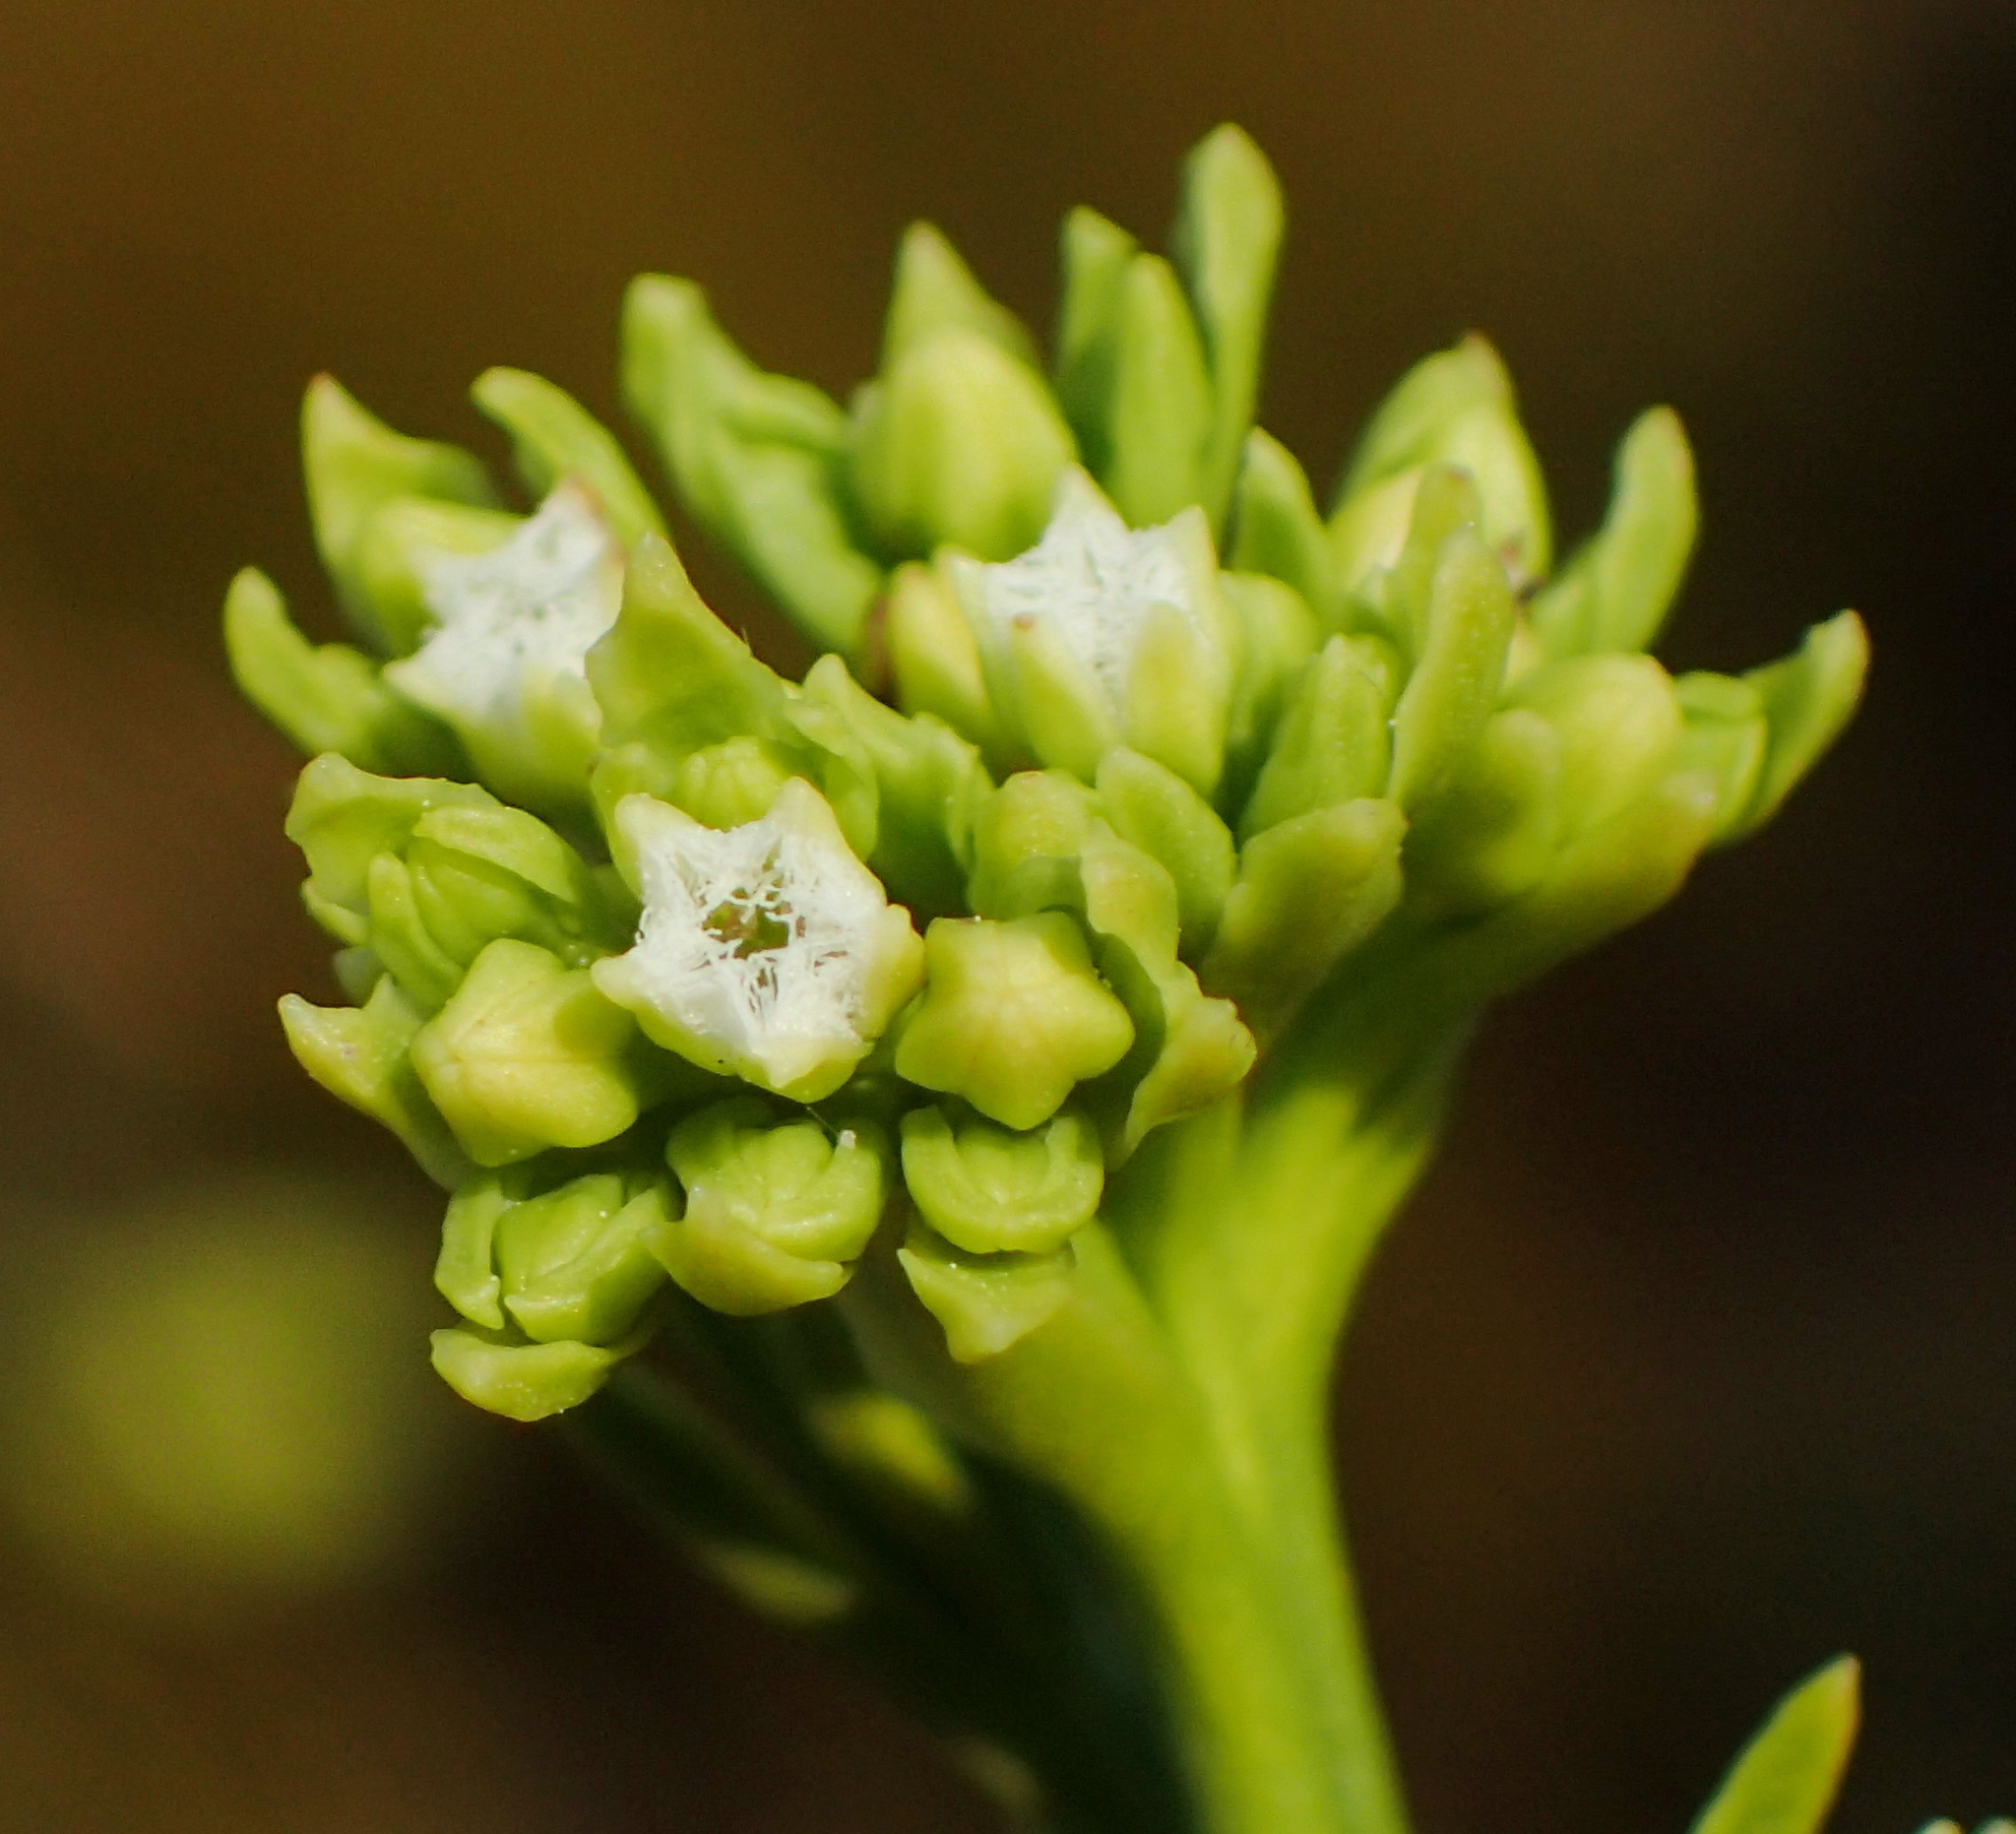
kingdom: Plantae
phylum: Tracheophyta
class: Magnoliopsida
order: Santalales
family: Thesiaceae
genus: Thesium
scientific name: Thesium umbelliferum
